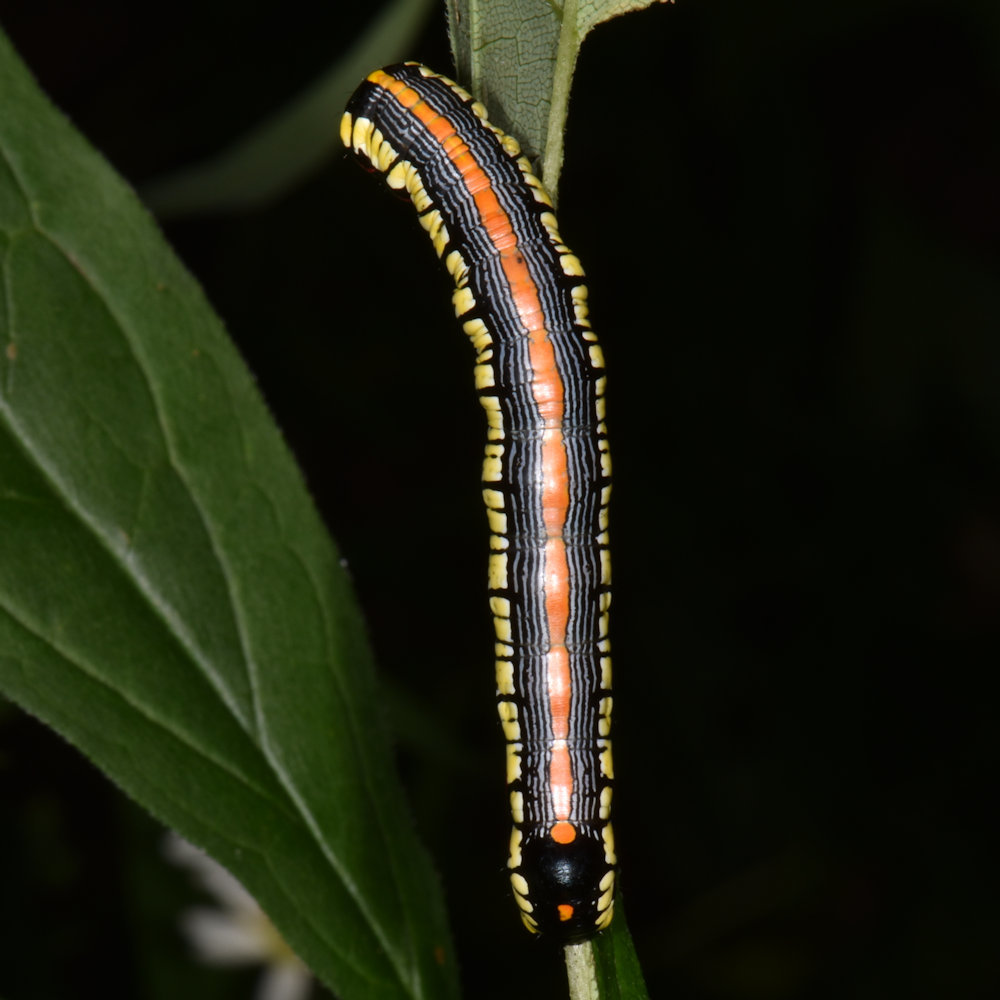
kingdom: Animalia
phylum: Arthropoda
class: Insecta
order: Lepidoptera
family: Noctuidae
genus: Cucullia
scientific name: Cucullia convexipennis
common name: Brown-hooded owlet
